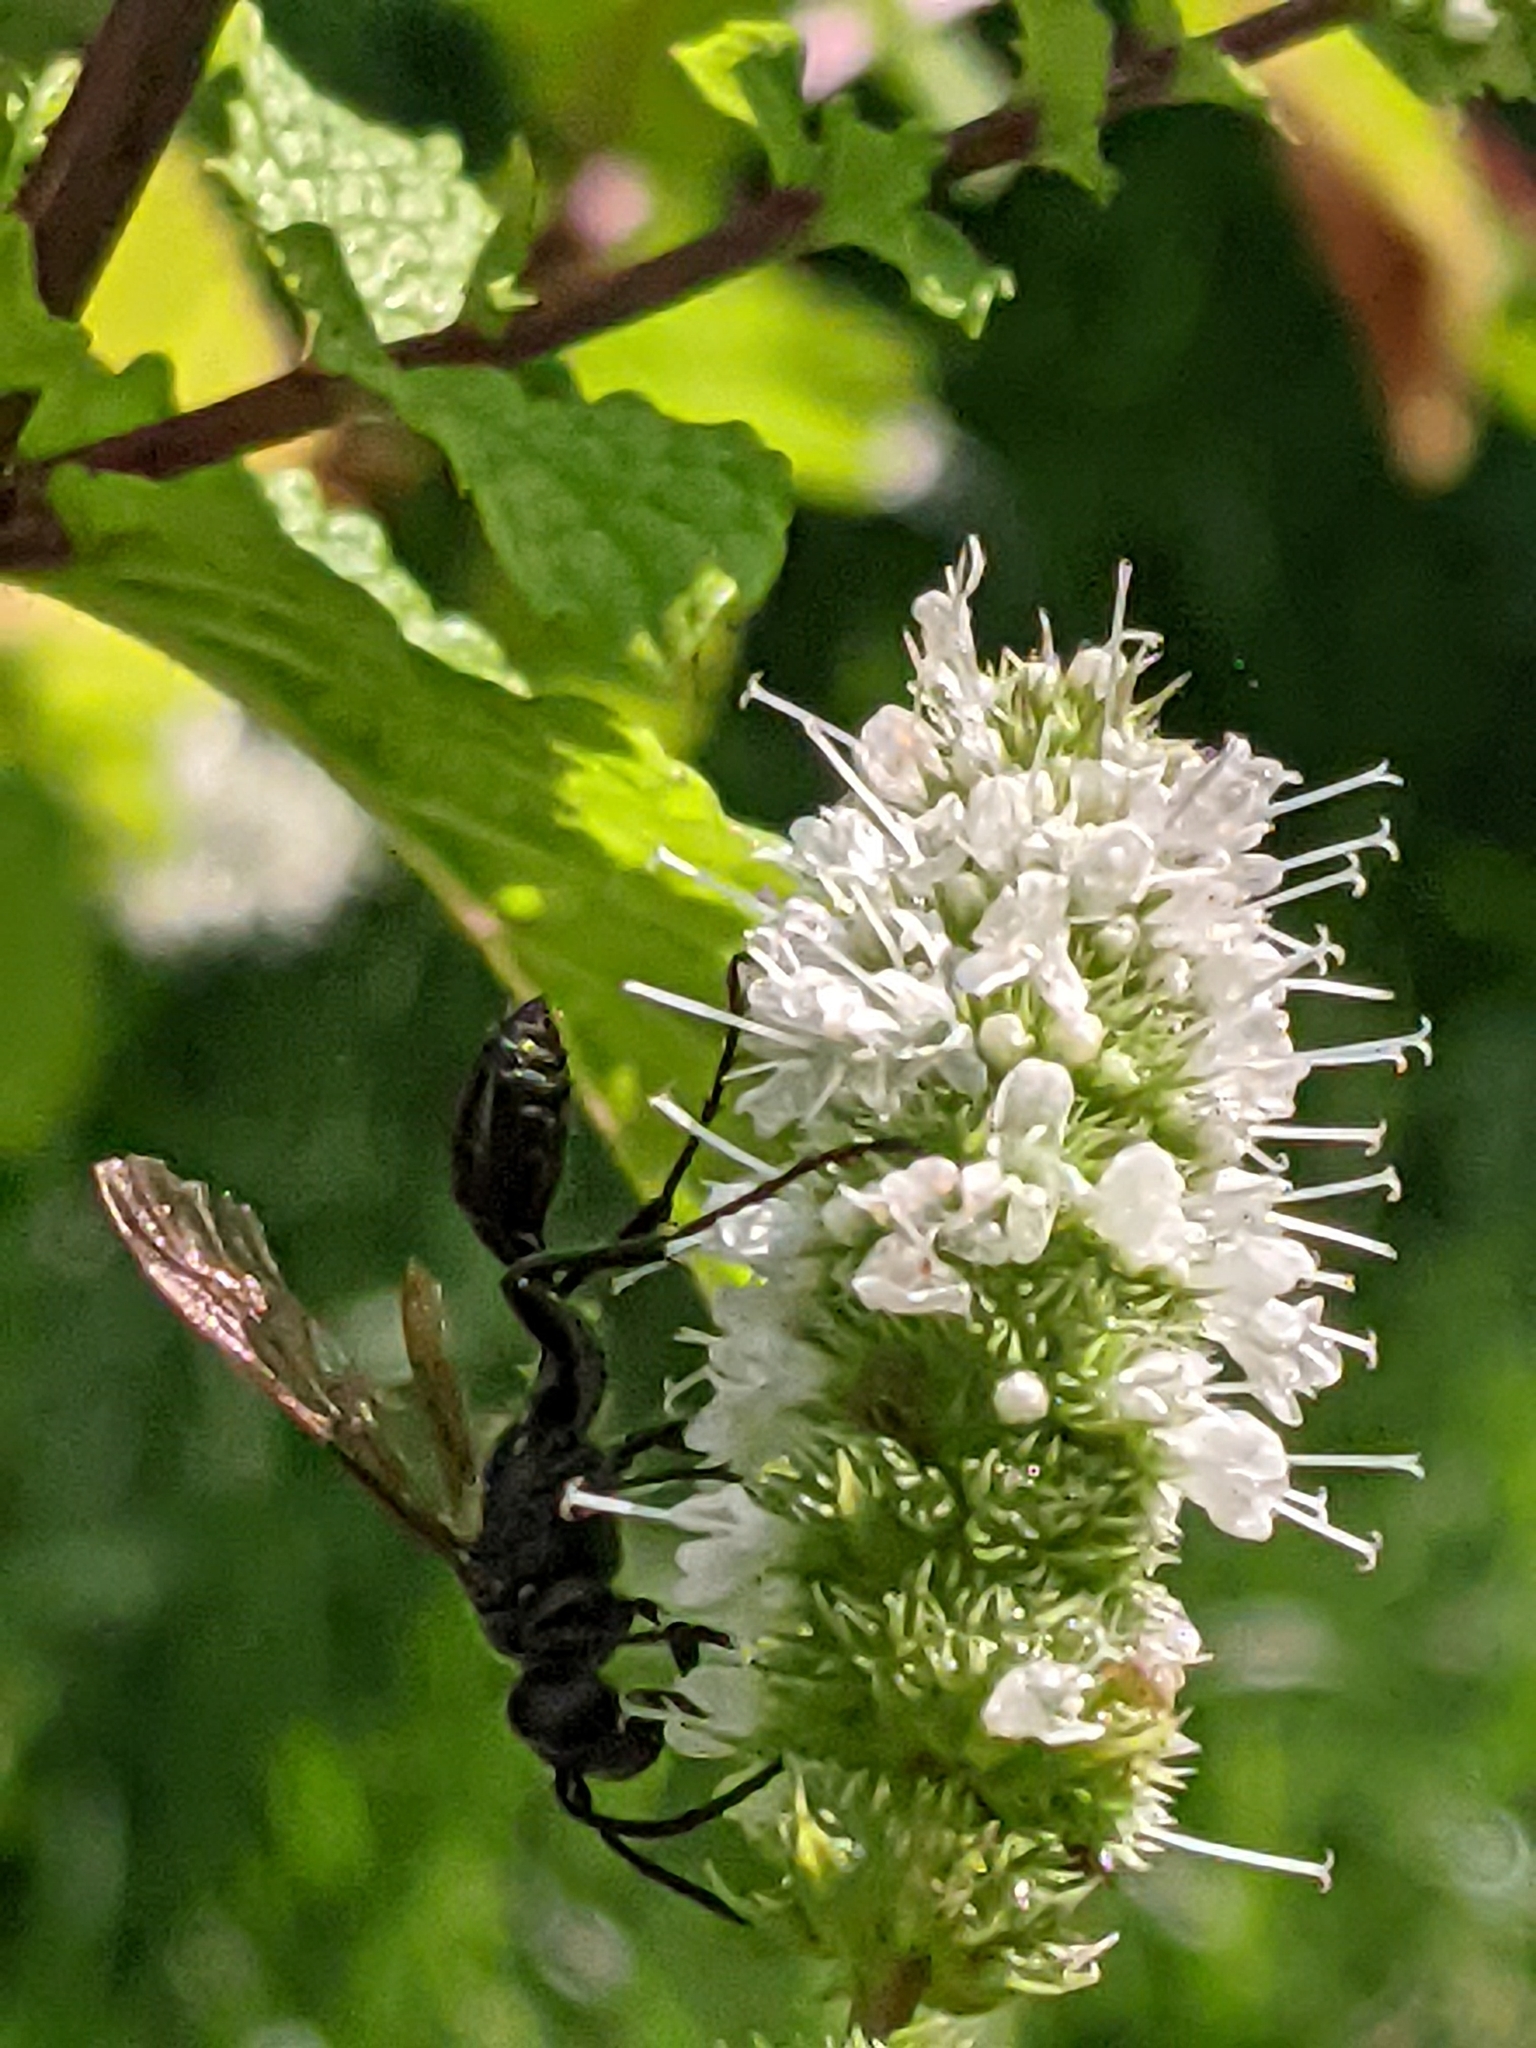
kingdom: Animalia
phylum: Arthropoda
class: Insecta
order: Hymenoptera
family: Sphecidae
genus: Isodontia
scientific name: Isodontia mexicana
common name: Mud dauber
